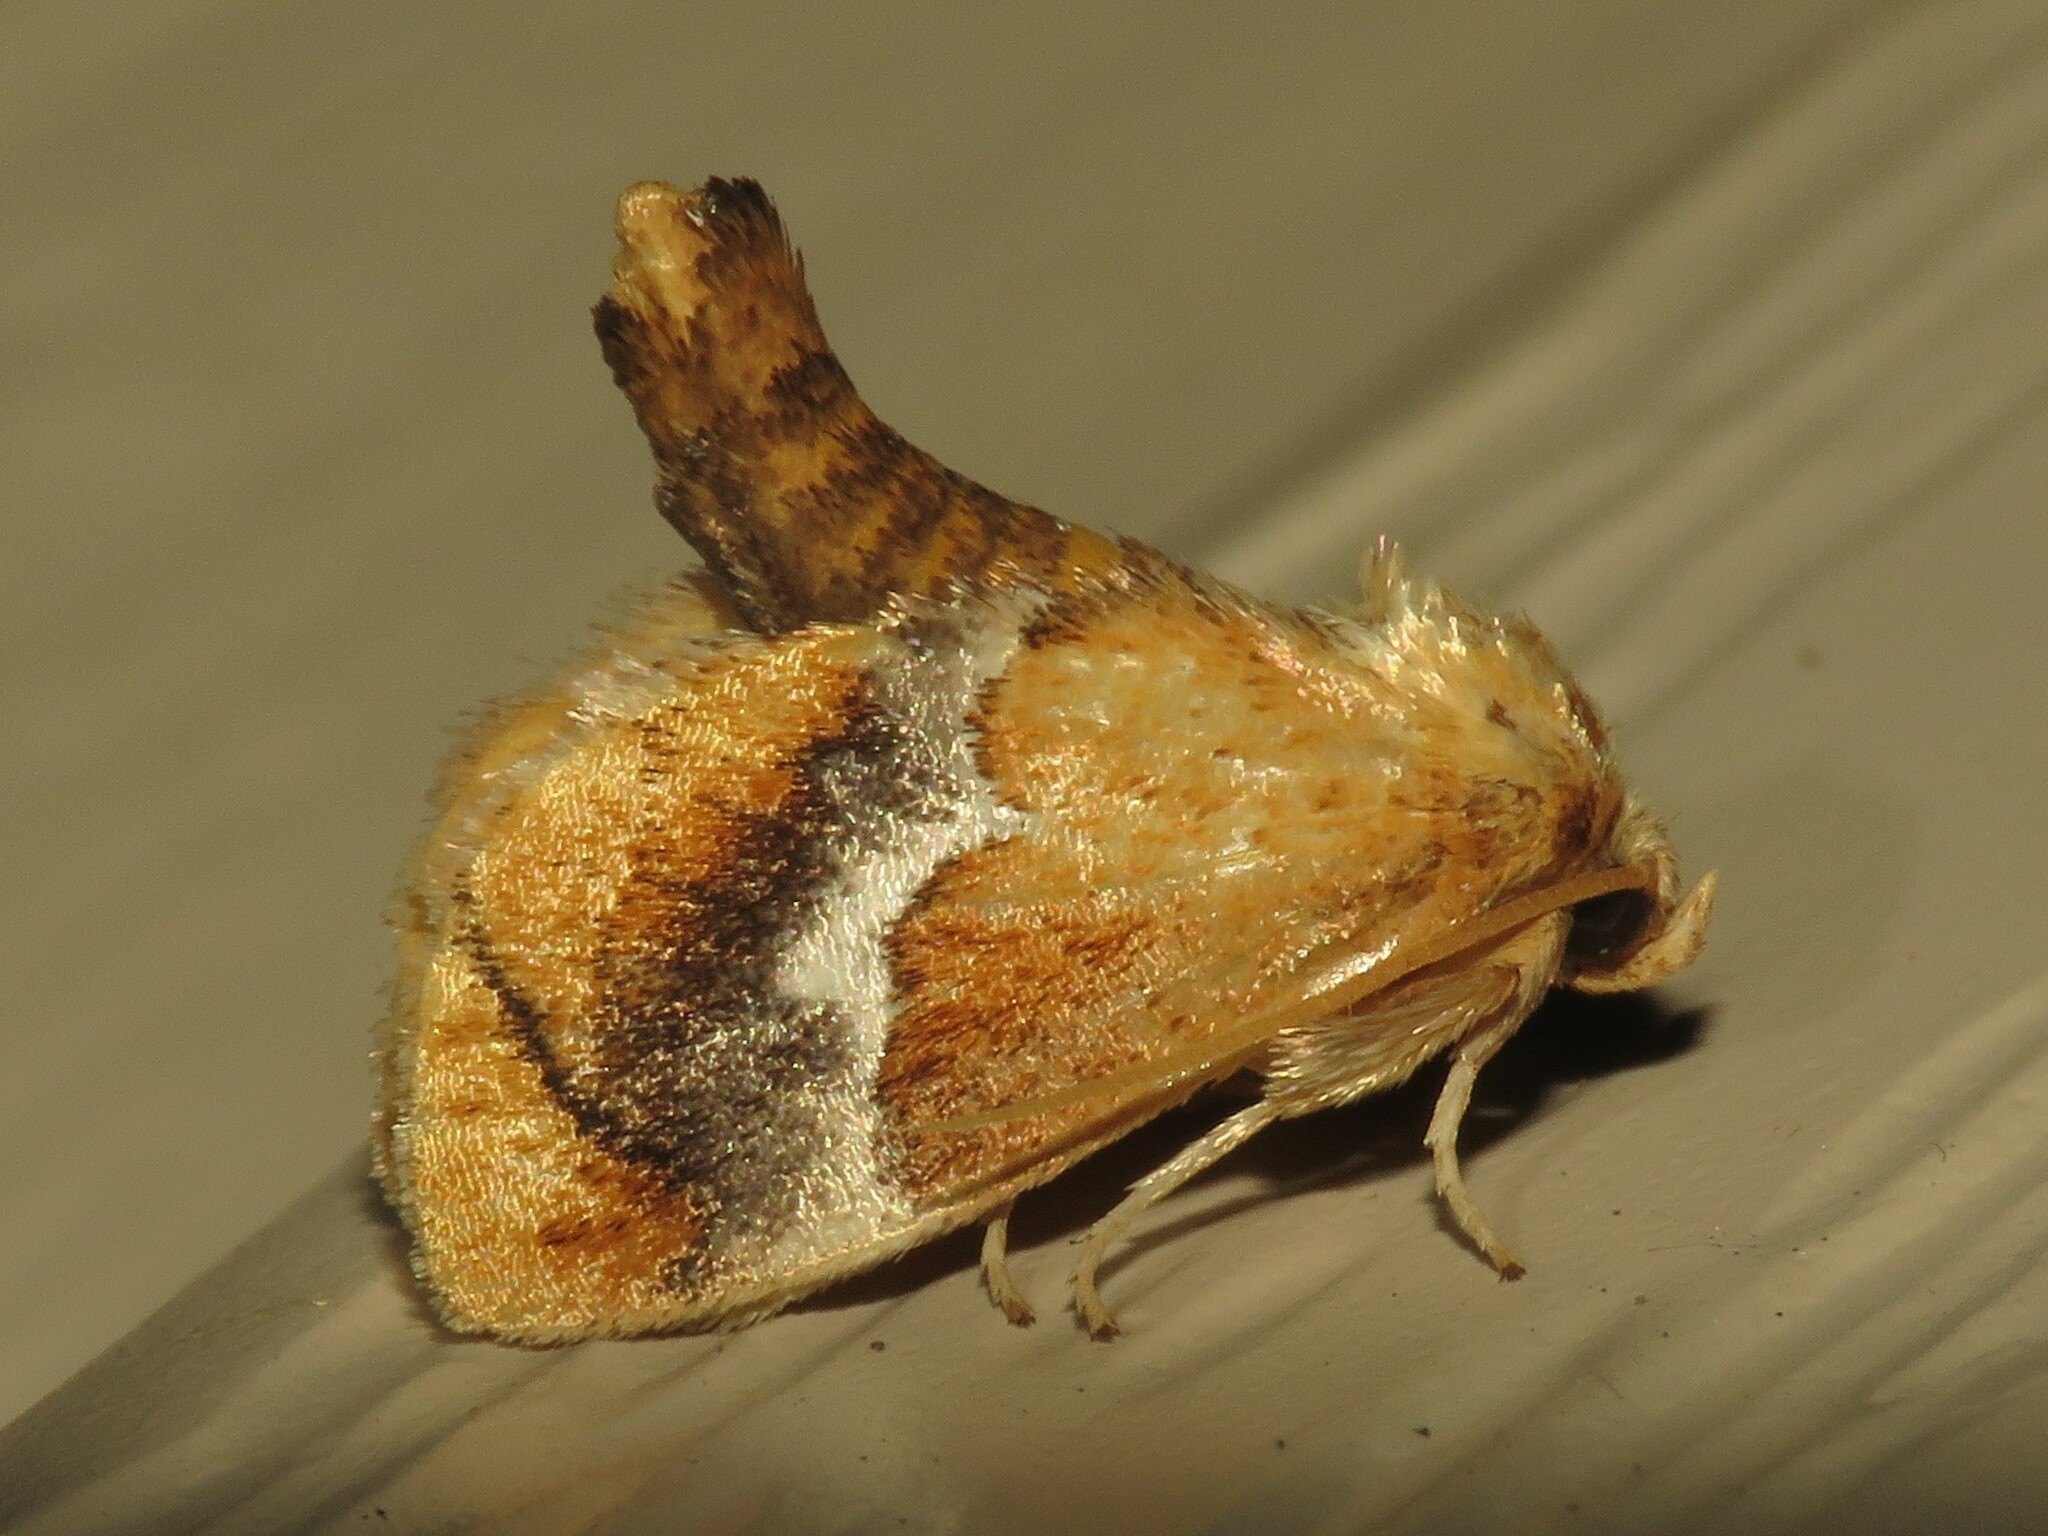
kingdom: Animalia
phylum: Arthropoda
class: Insecta
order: Lepidoptera
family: Limacodidae
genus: Lithacodes
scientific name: Lithacodes fasciola
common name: Yellow-shouldered slug moth
